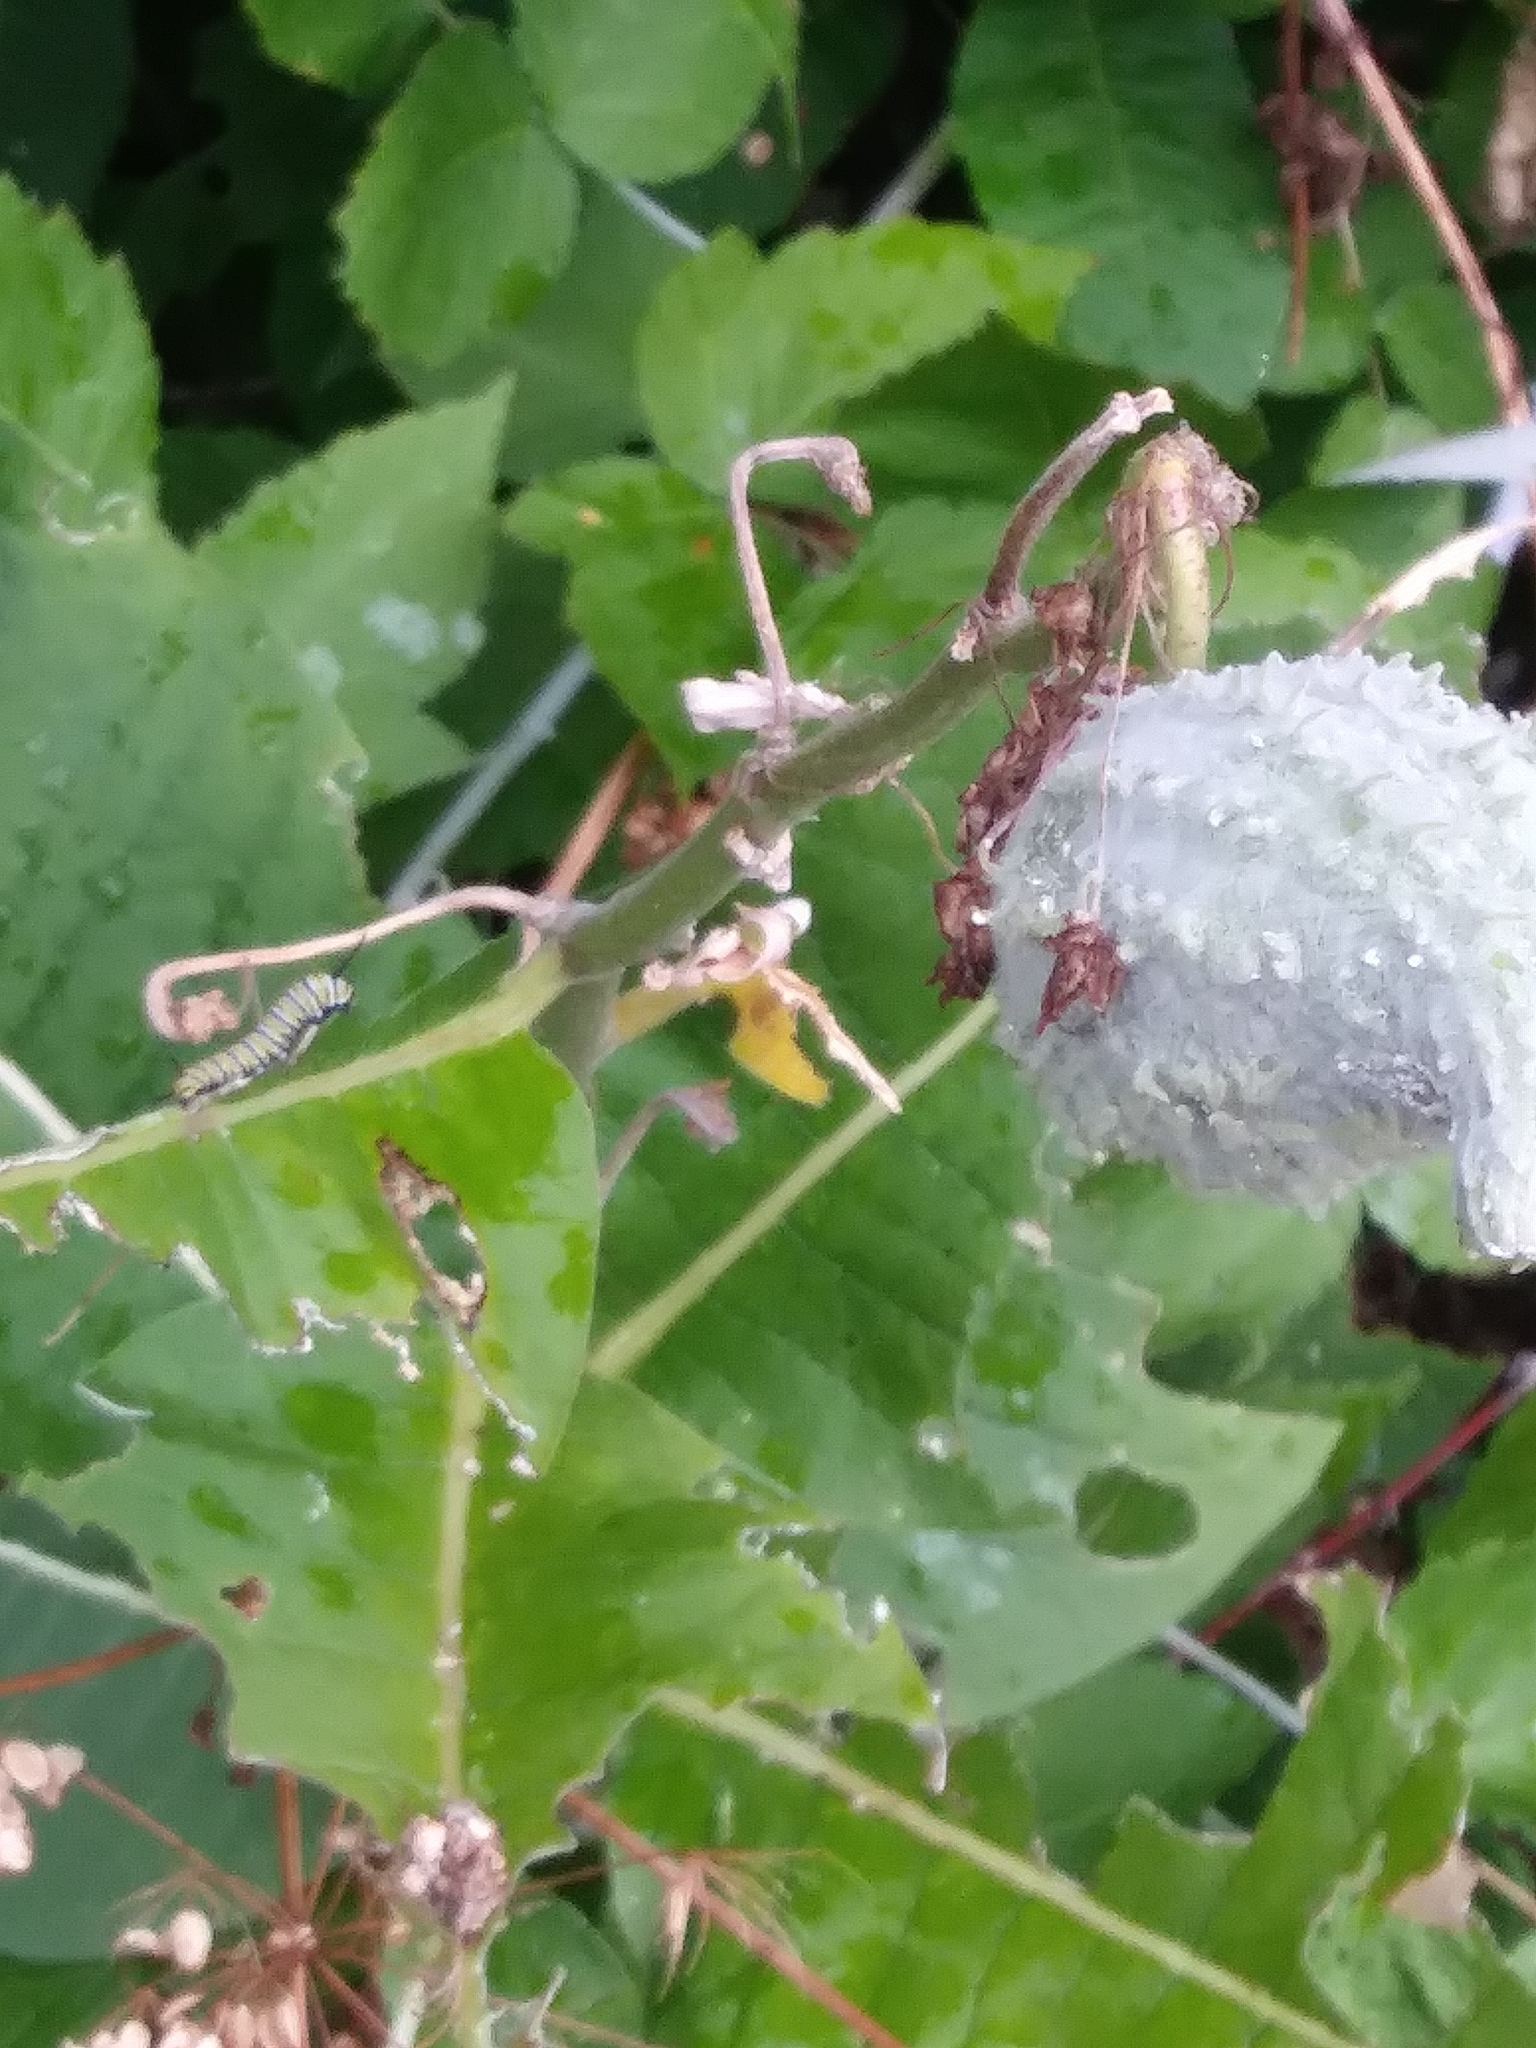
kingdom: Animalia
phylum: Arthropoda
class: Insecta
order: Lepidoptera
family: Nymphalidae
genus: Danaus
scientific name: Danaus plexippus
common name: Monarch
